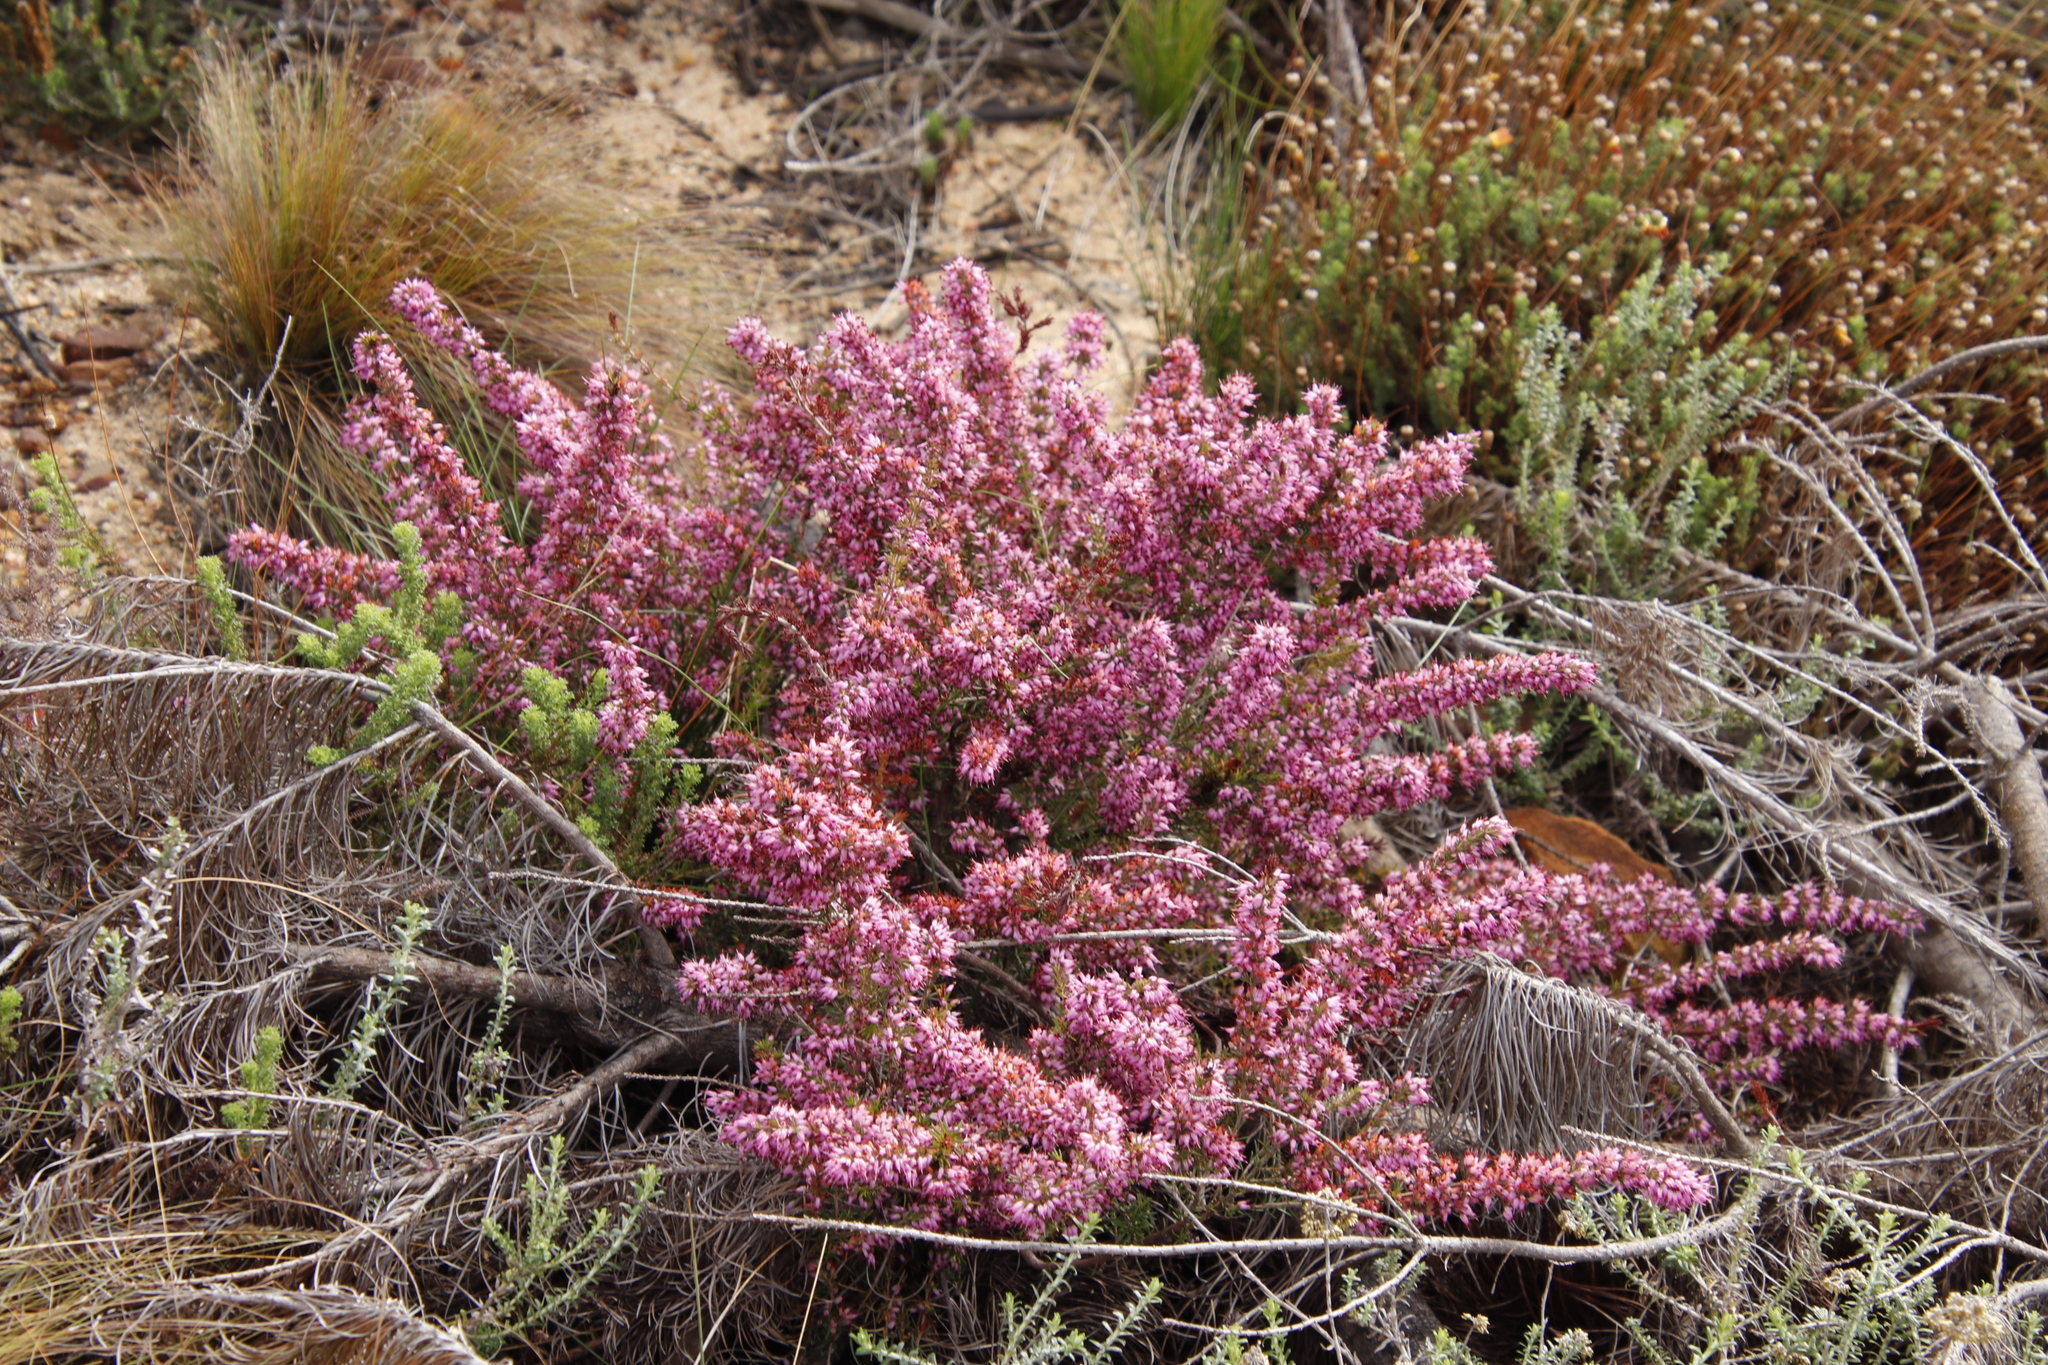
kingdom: Plantae
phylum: Tracheophyta
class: Magnoliopsida
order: Ericales
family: Ericaceae
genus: Erica
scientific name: Erica nudiflora
